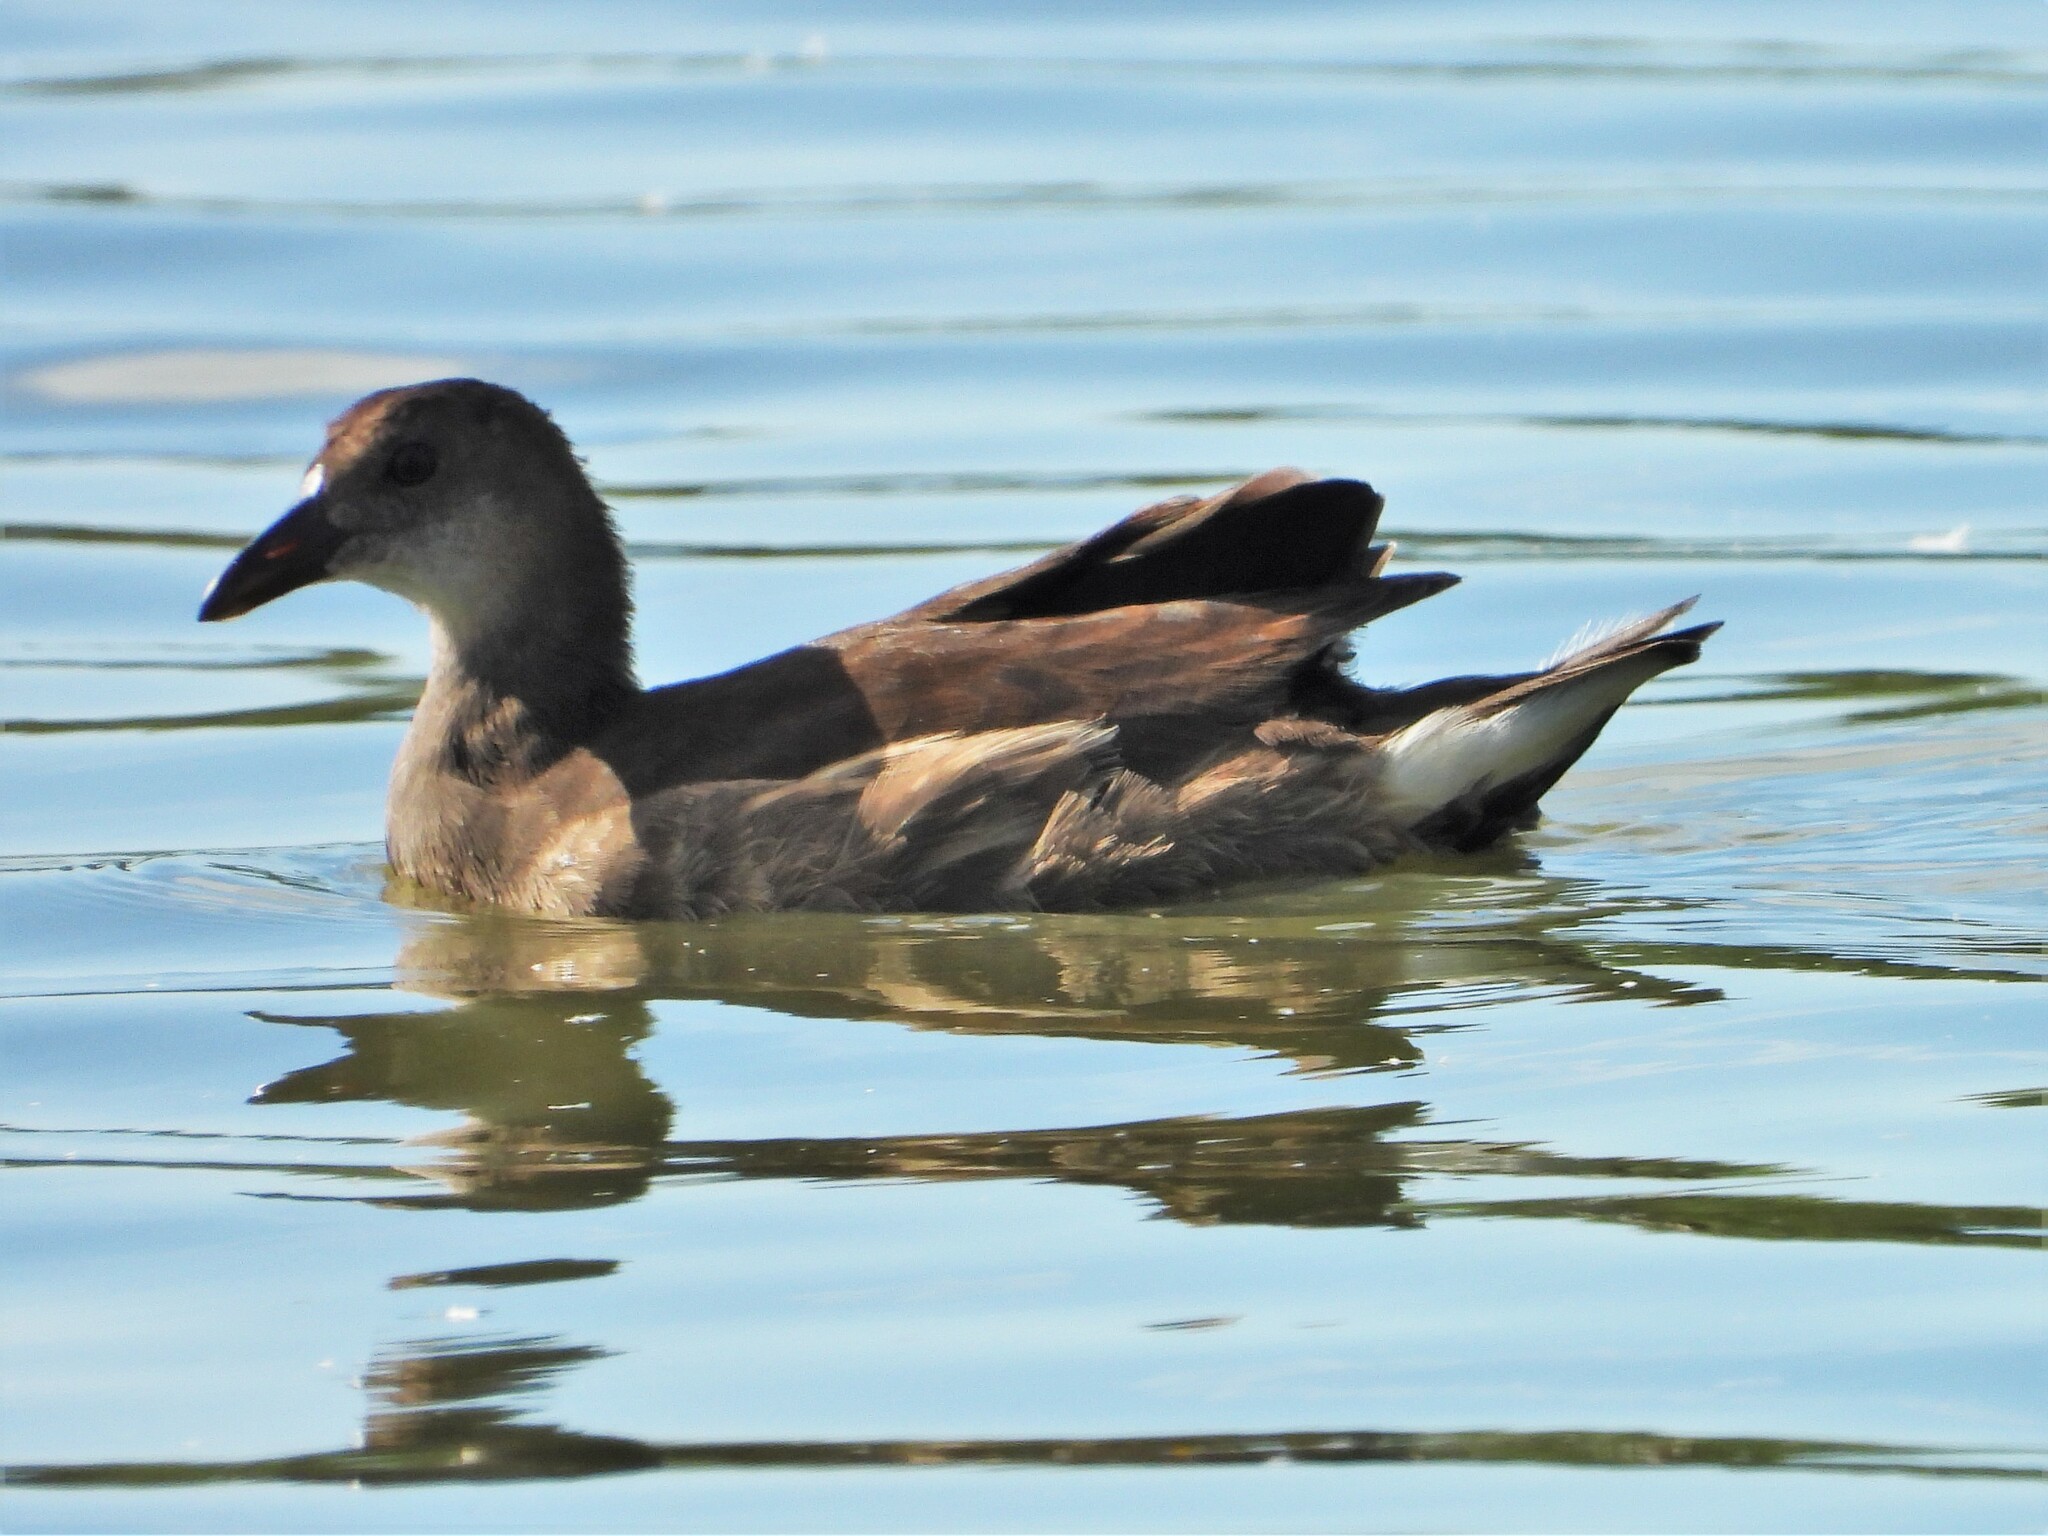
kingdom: Animalia
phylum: Chordata
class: Aves
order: Gruiformes
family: Rallidae
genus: Gallinula
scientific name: Gallinula chloropus
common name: Common moorhen
